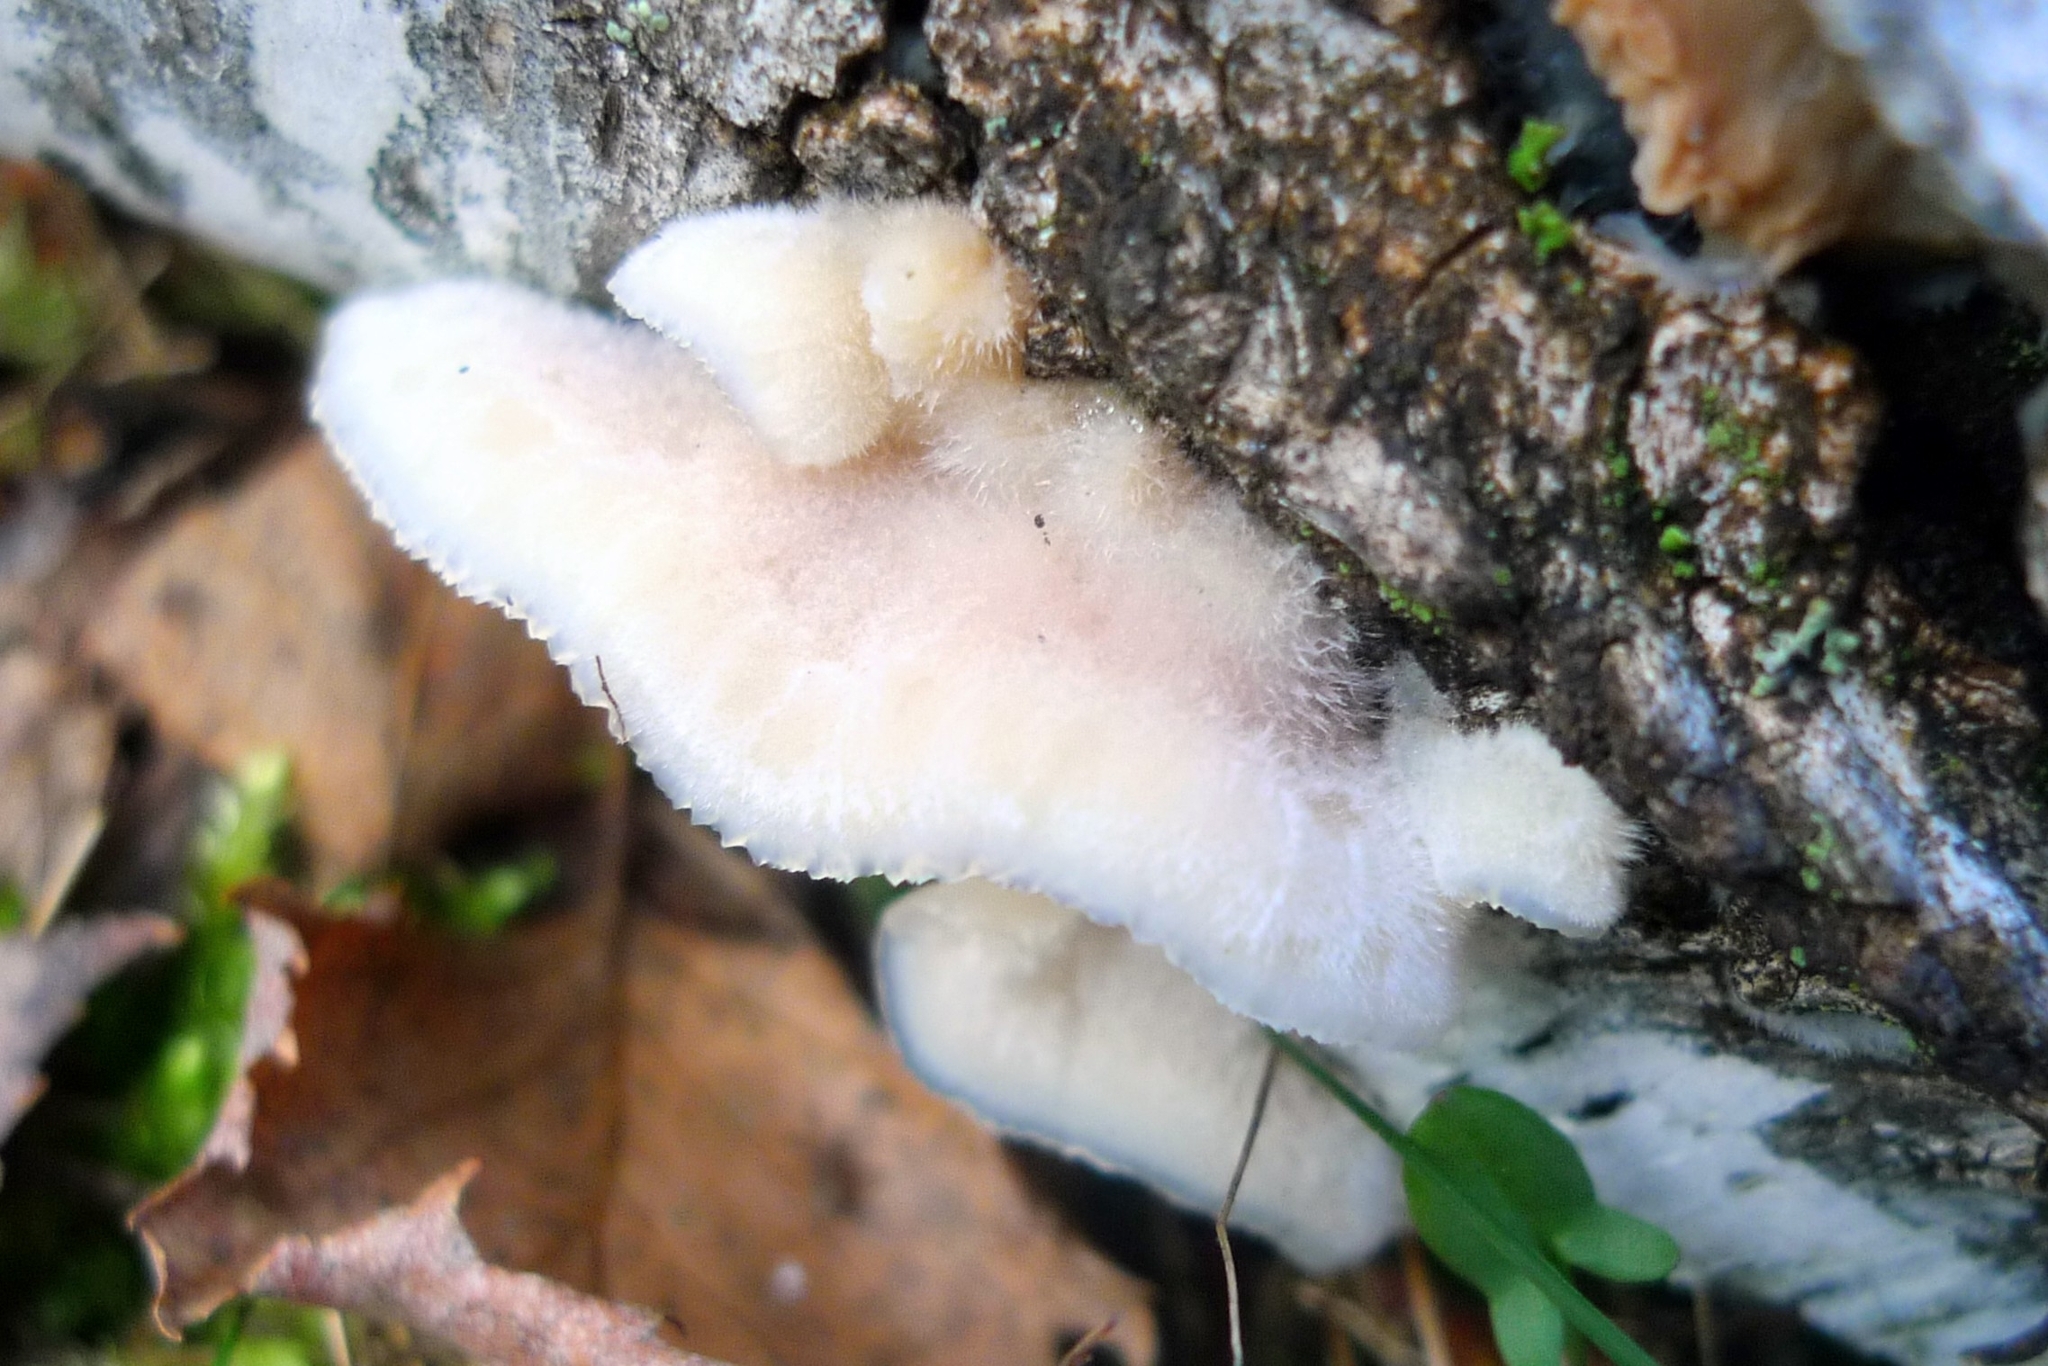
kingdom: Fungi
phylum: Basidiomycota
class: Agaricomycetes
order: Polyporales
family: Meruliaceae
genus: Phlebia
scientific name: Phlebia tremellosa
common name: Jelly rot
